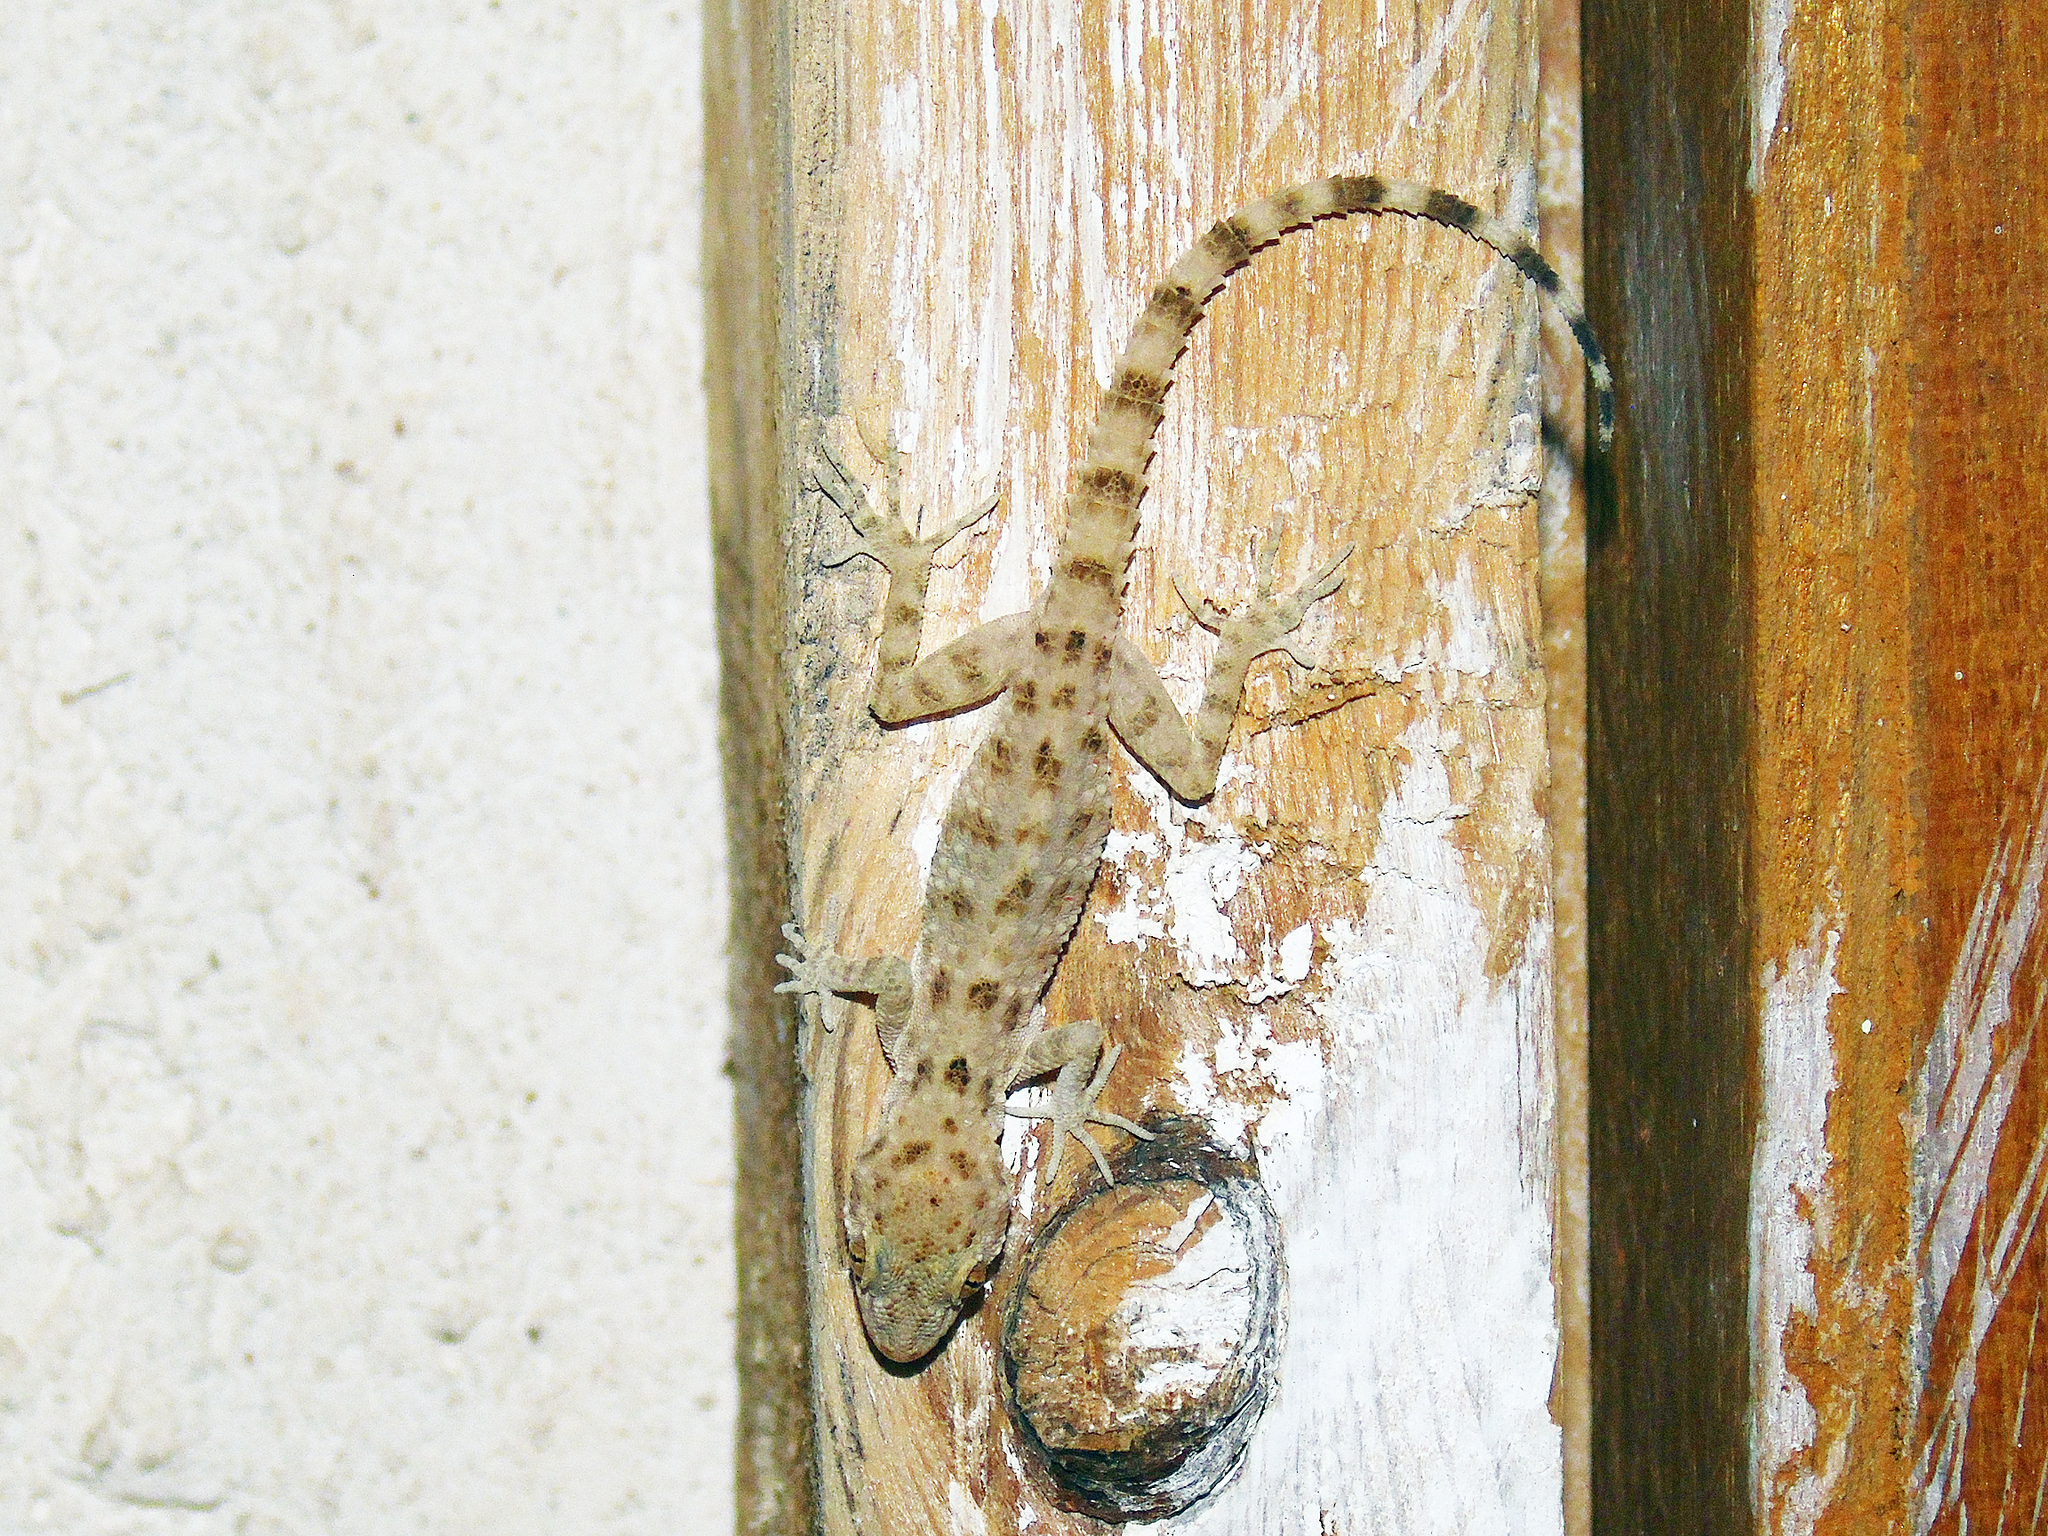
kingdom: Animalia
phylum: Chordata
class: Squamata
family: Gekkonidae
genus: Cyrtopodion
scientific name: Cyrtopodion scabrum
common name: Rough-tailed gecko
